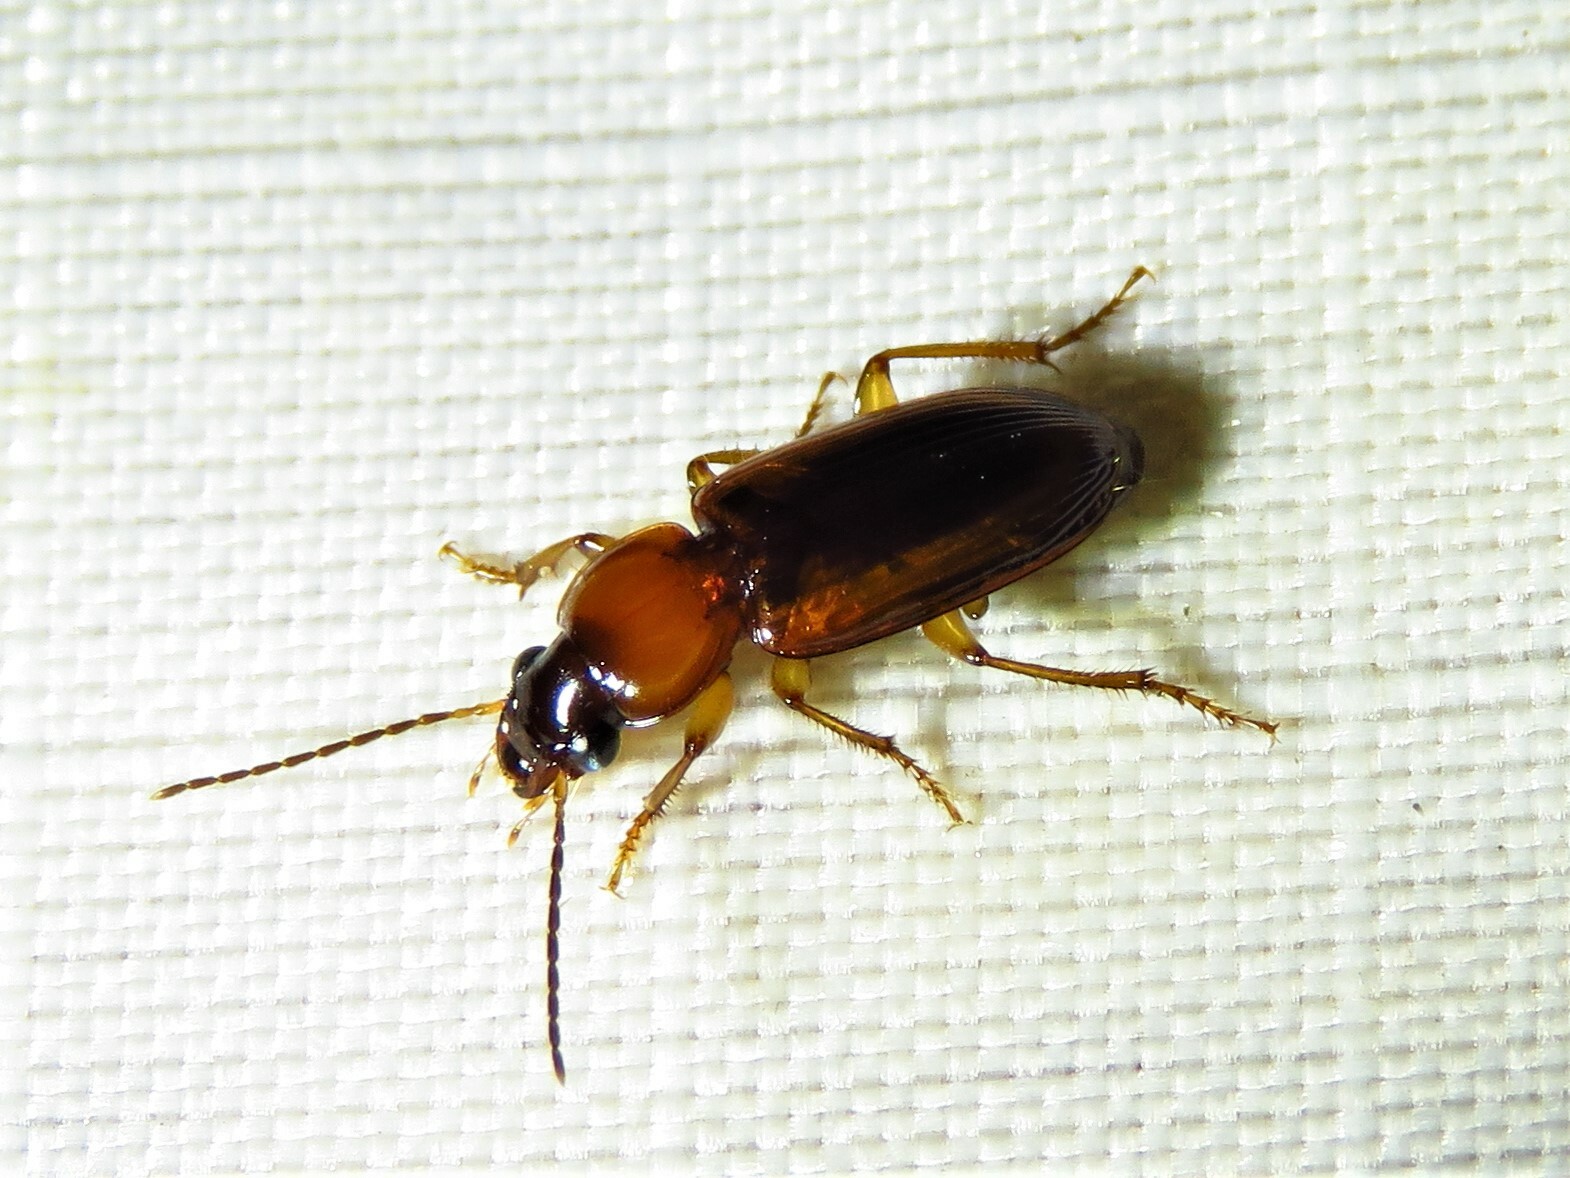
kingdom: Animalia
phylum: Arthropoda
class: Insecta
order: Coleoptera
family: Carabidae
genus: Stenolophus
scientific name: Stenolophus dissimilis
